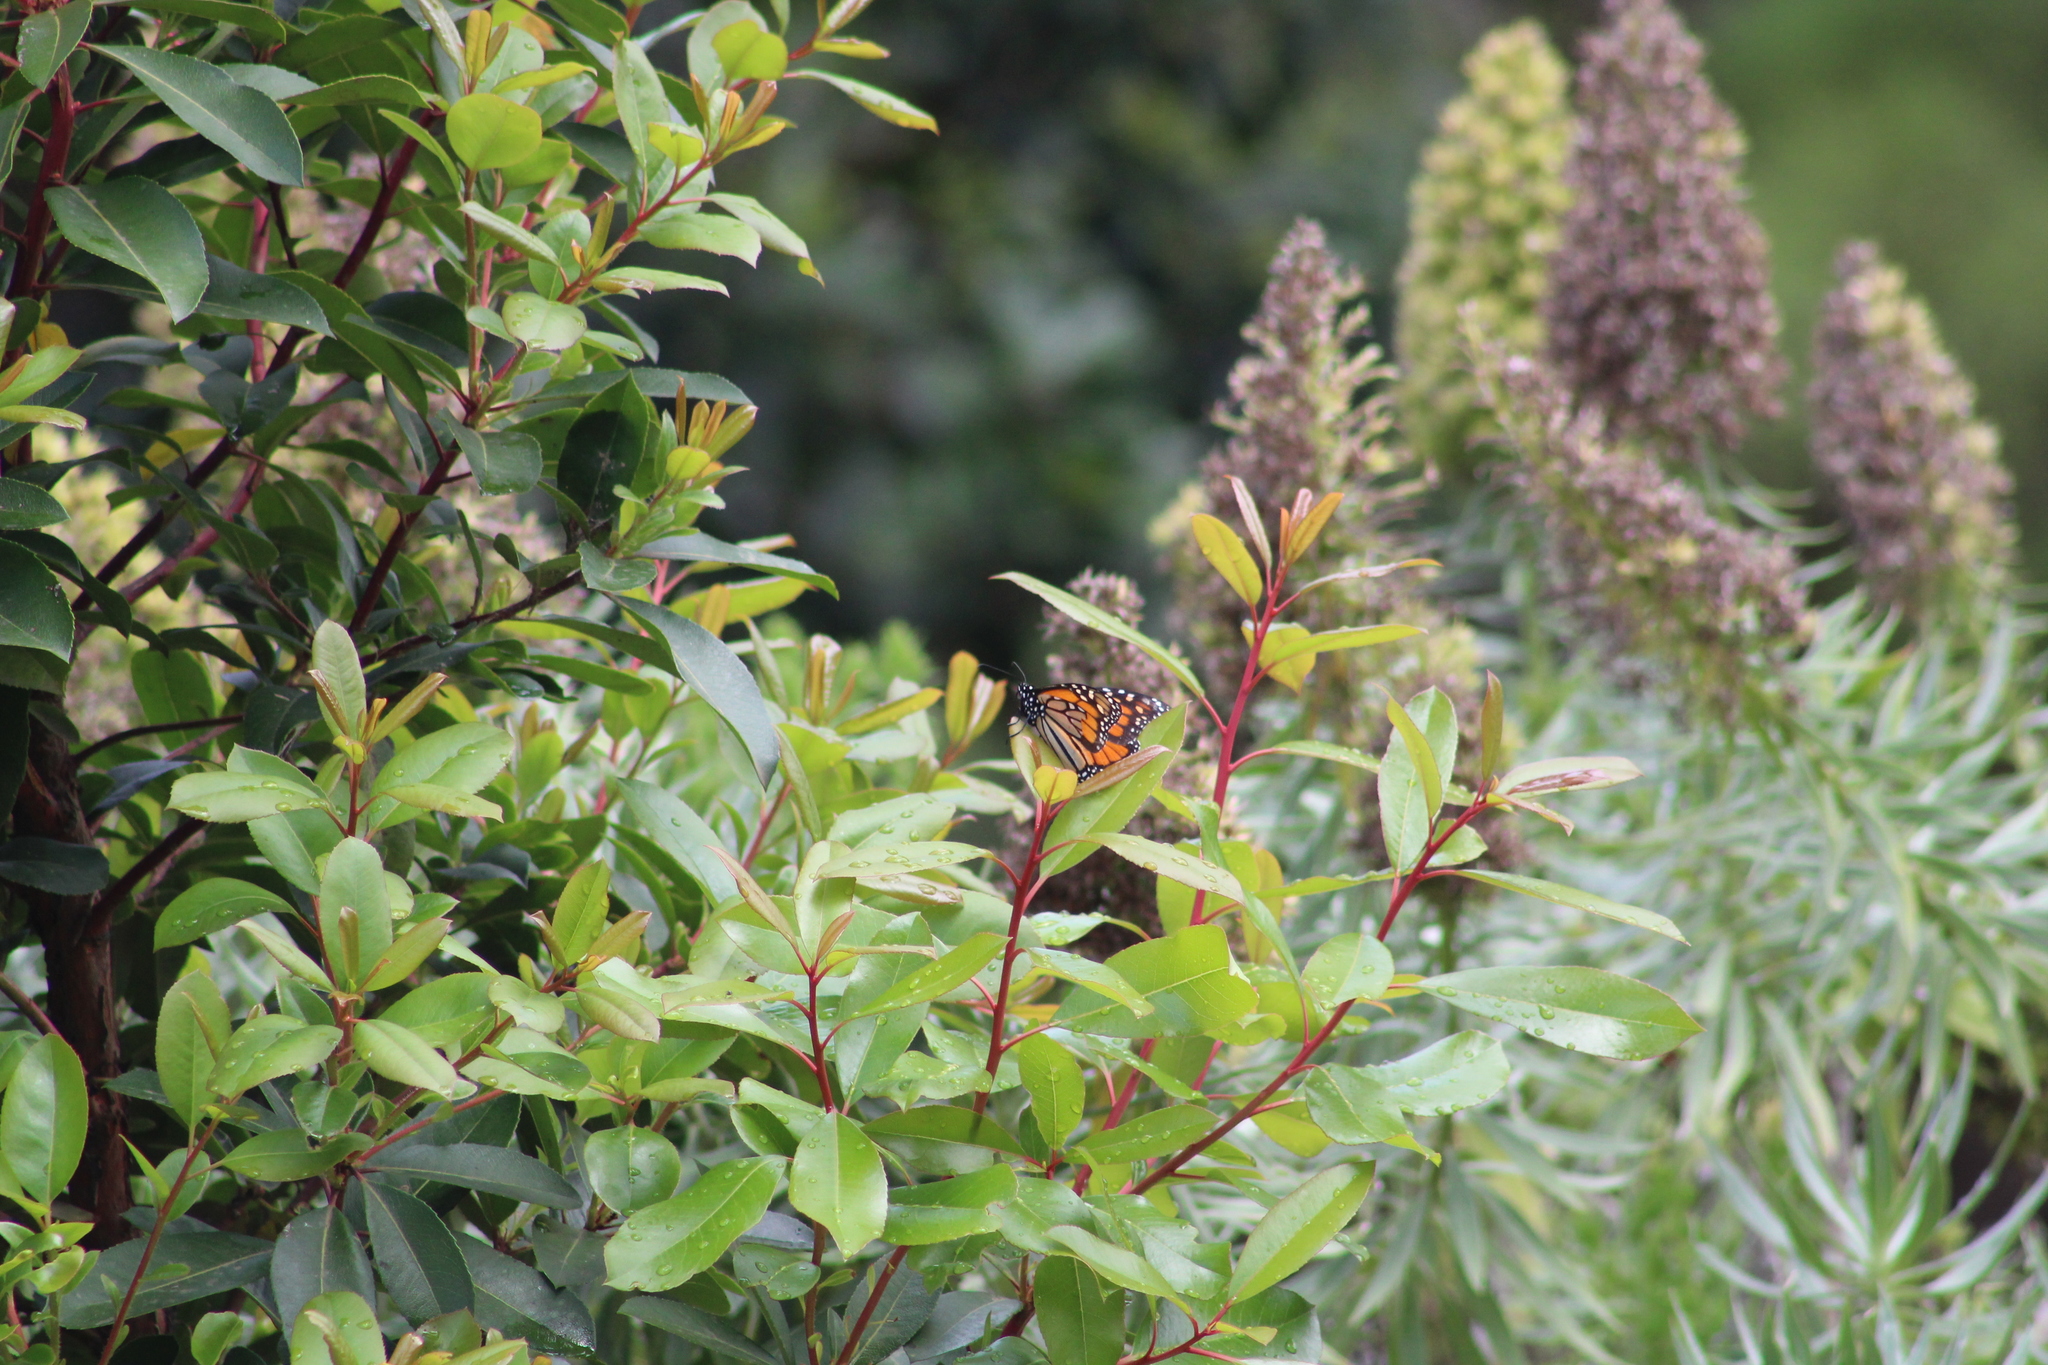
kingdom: Animalia
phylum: Arthropoda
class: Insecta
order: Lepidoptera
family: Nymphalidae
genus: Danaus
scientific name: Danaus plexippus
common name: Monarch
